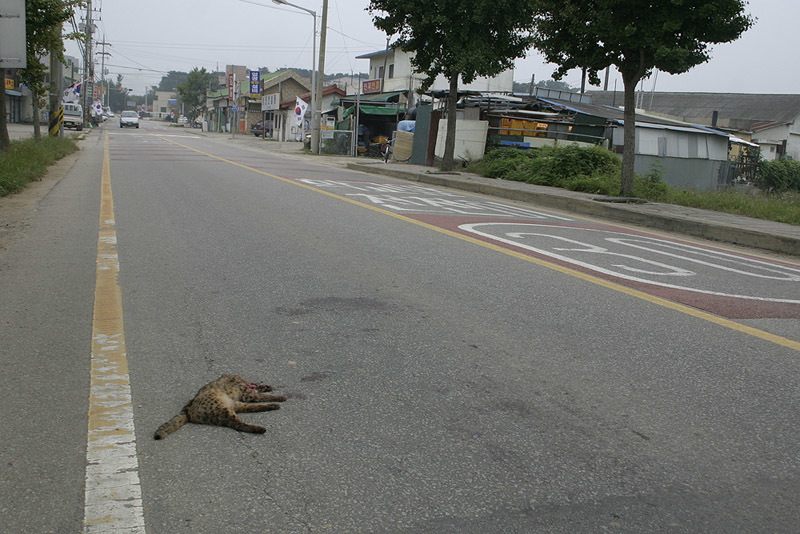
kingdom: Animalia
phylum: Chordata
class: Mammalia
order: Carnivora
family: Felidae
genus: Prionailurus
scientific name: Prionailurus bengalensis
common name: Leopard cat
